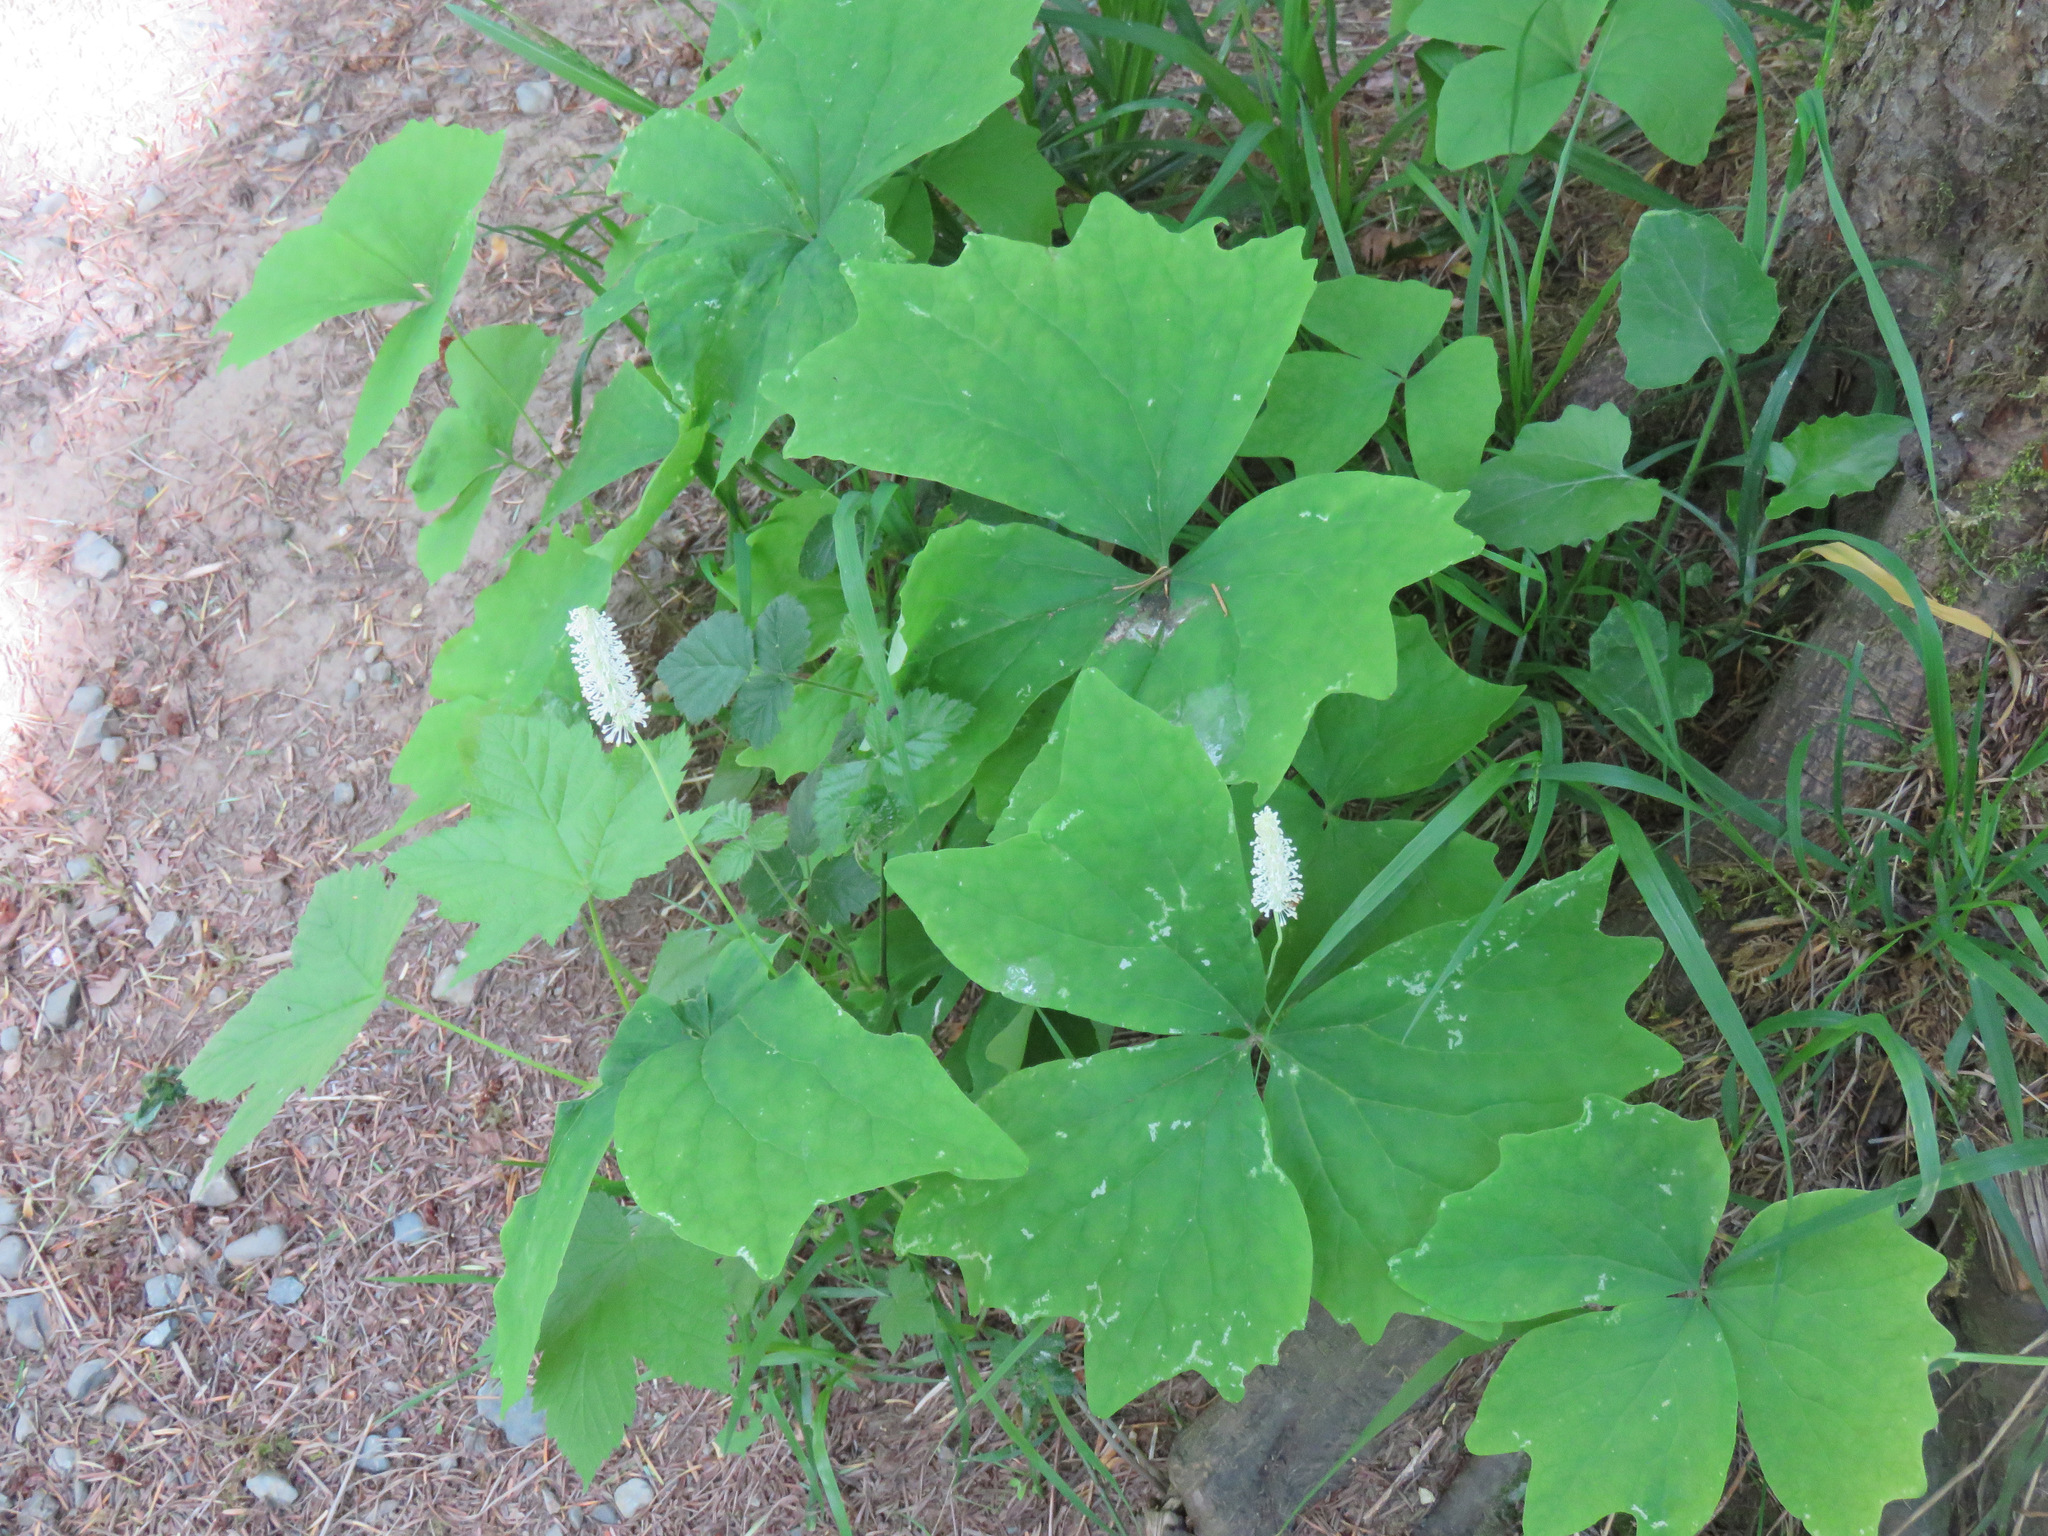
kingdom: Plantae
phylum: Tracheophyta
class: Magnoliopsida
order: Ranunculales
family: Berberidaceae
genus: Achlys
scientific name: Achlys triphylla
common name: Vanilla-leaf
